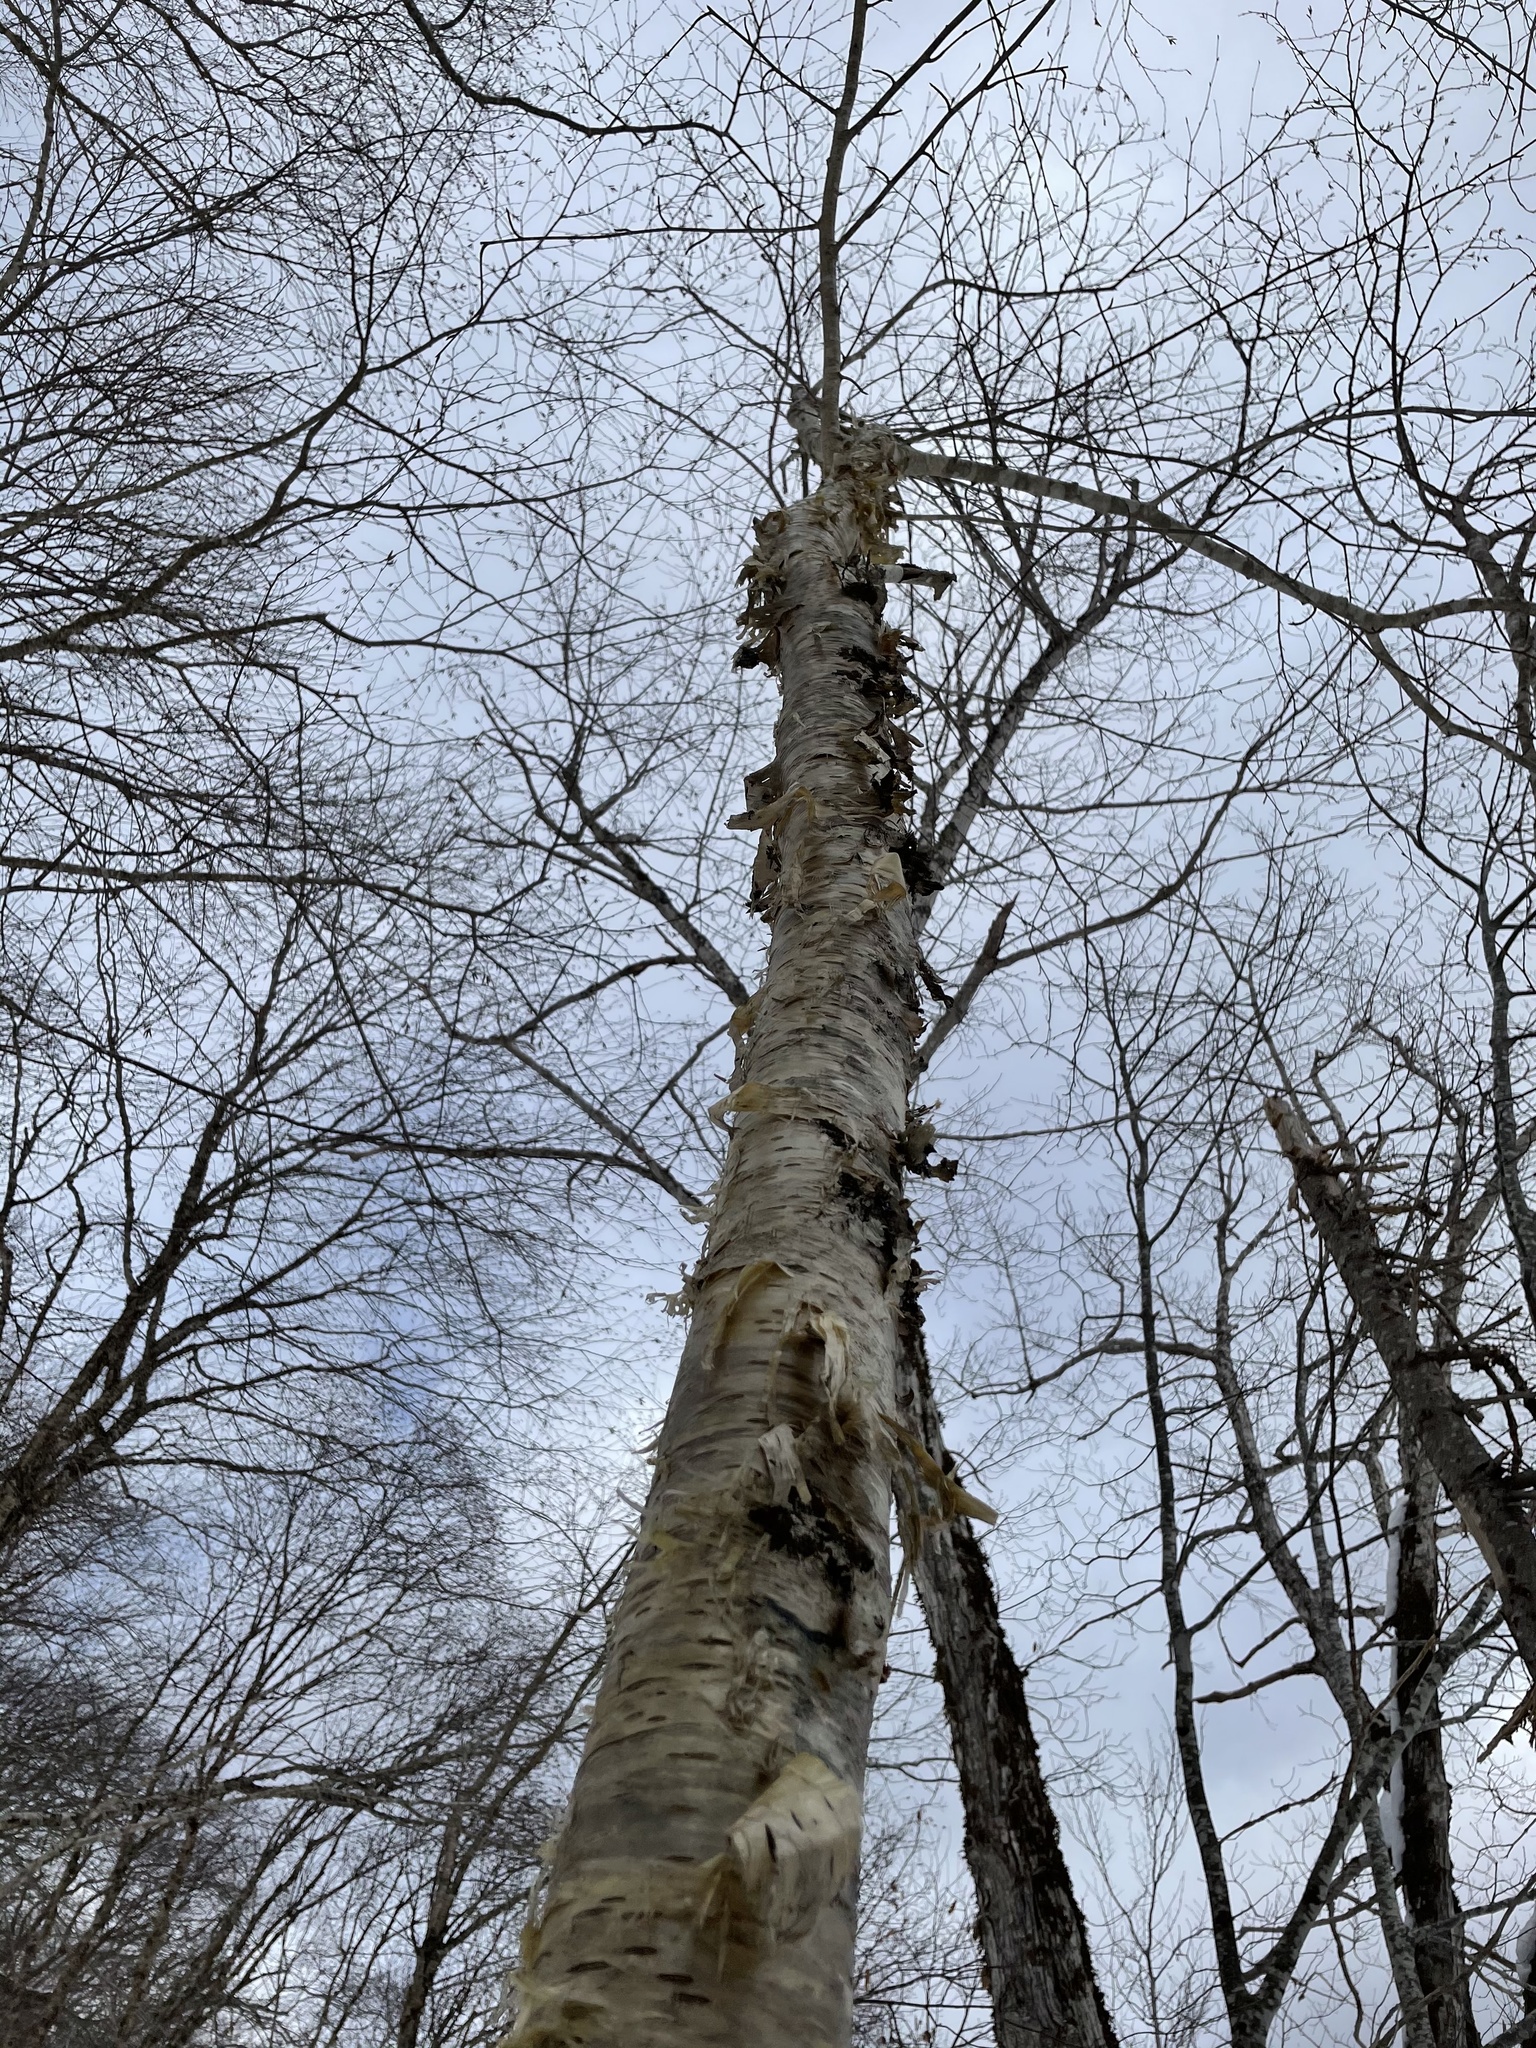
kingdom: Plantae
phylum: Tracheophyta
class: Magnoliopsida
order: Fagales
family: Betulaceae
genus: Betula
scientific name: Betula alleghaniensis
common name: Yellow birch
